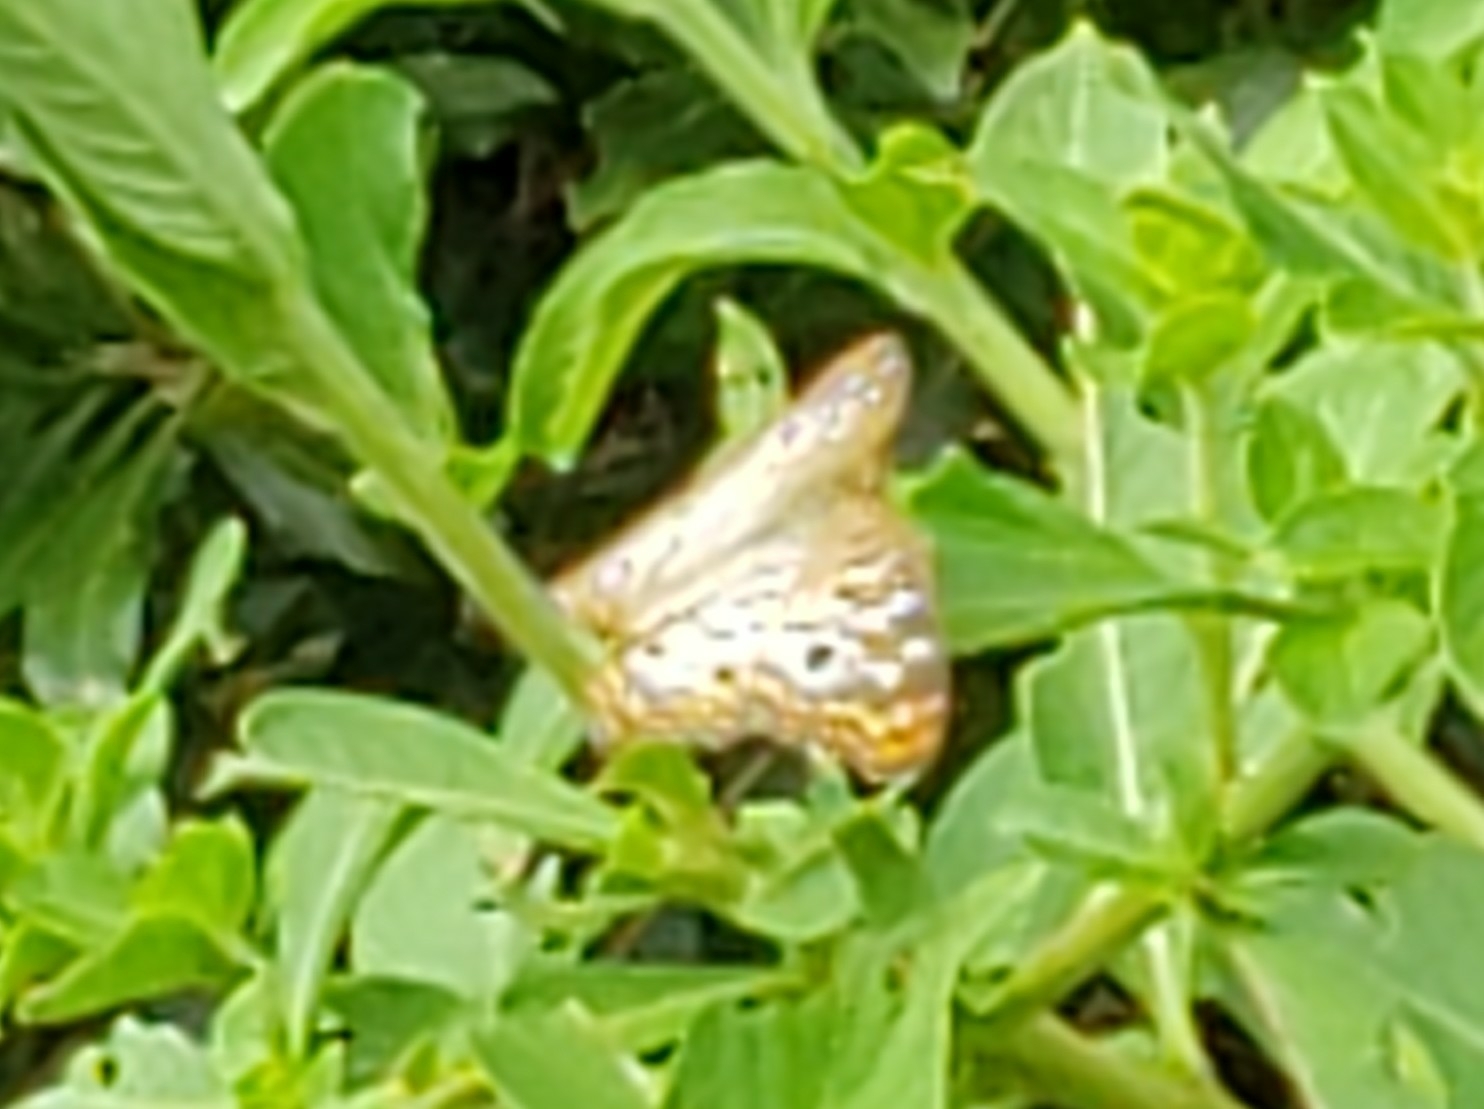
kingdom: Animalia
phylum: Arthropoda
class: Insecta
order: Lepidoptera
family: Nymphalidae
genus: Anartia
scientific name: Anartia jatrophae
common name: White peacock
